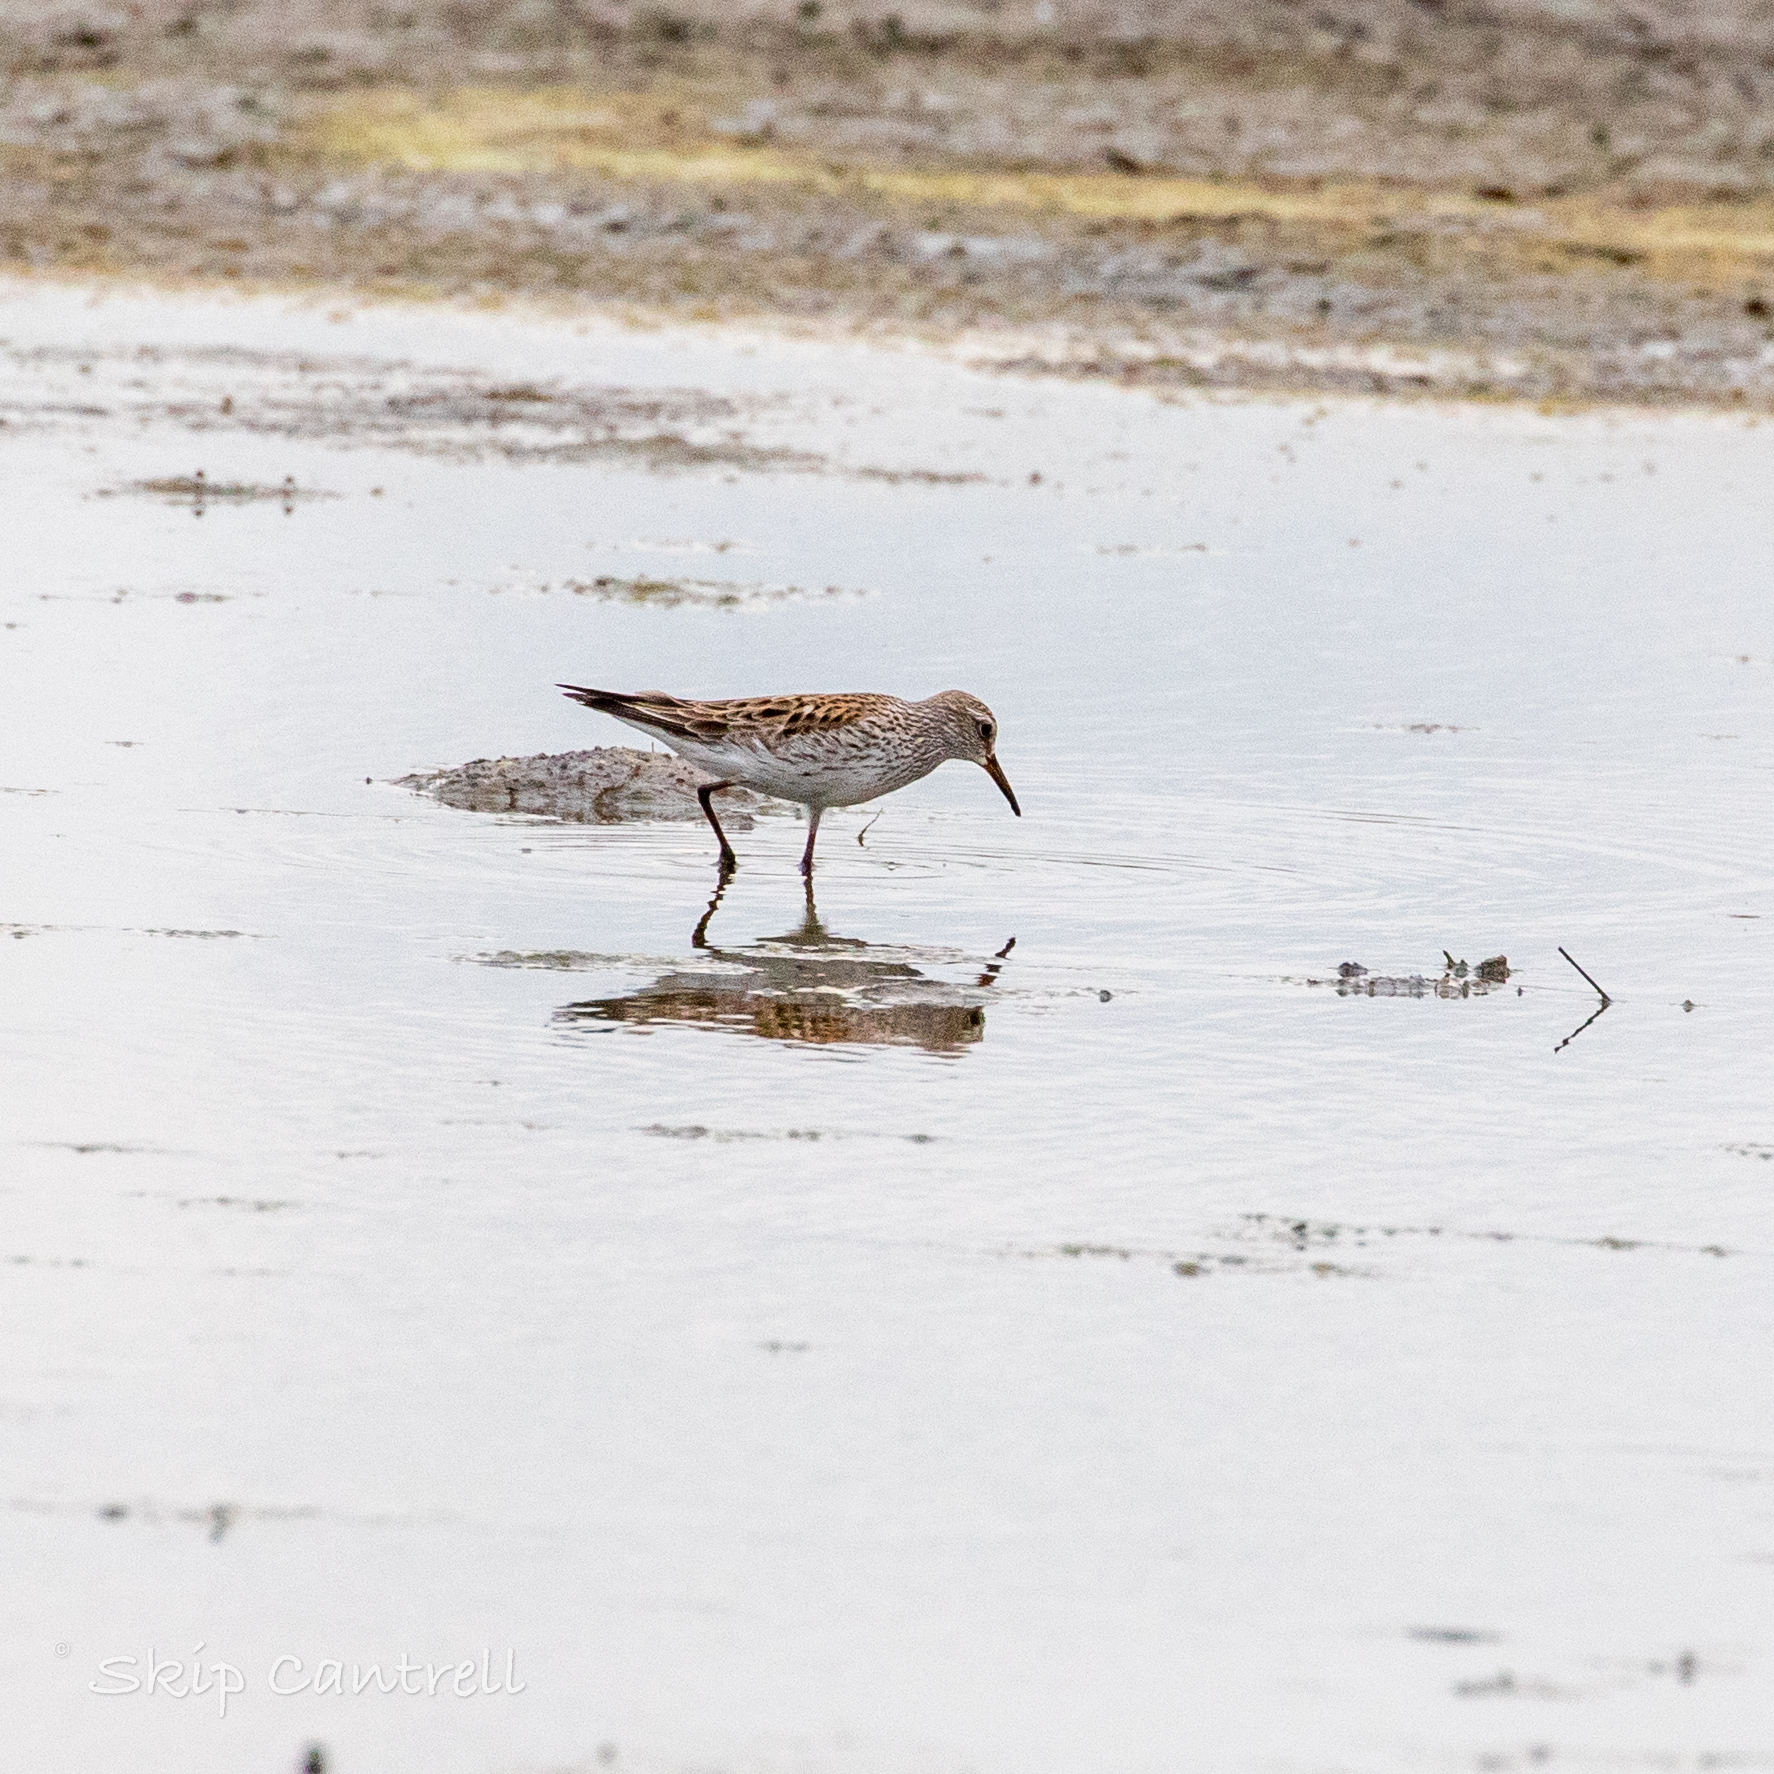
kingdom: Animalia
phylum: Chordata
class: Aves
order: Charadriiformes
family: Scolopacidae
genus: Calidris
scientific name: Calidris fuscicollis
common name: White-rumped sandpiper
